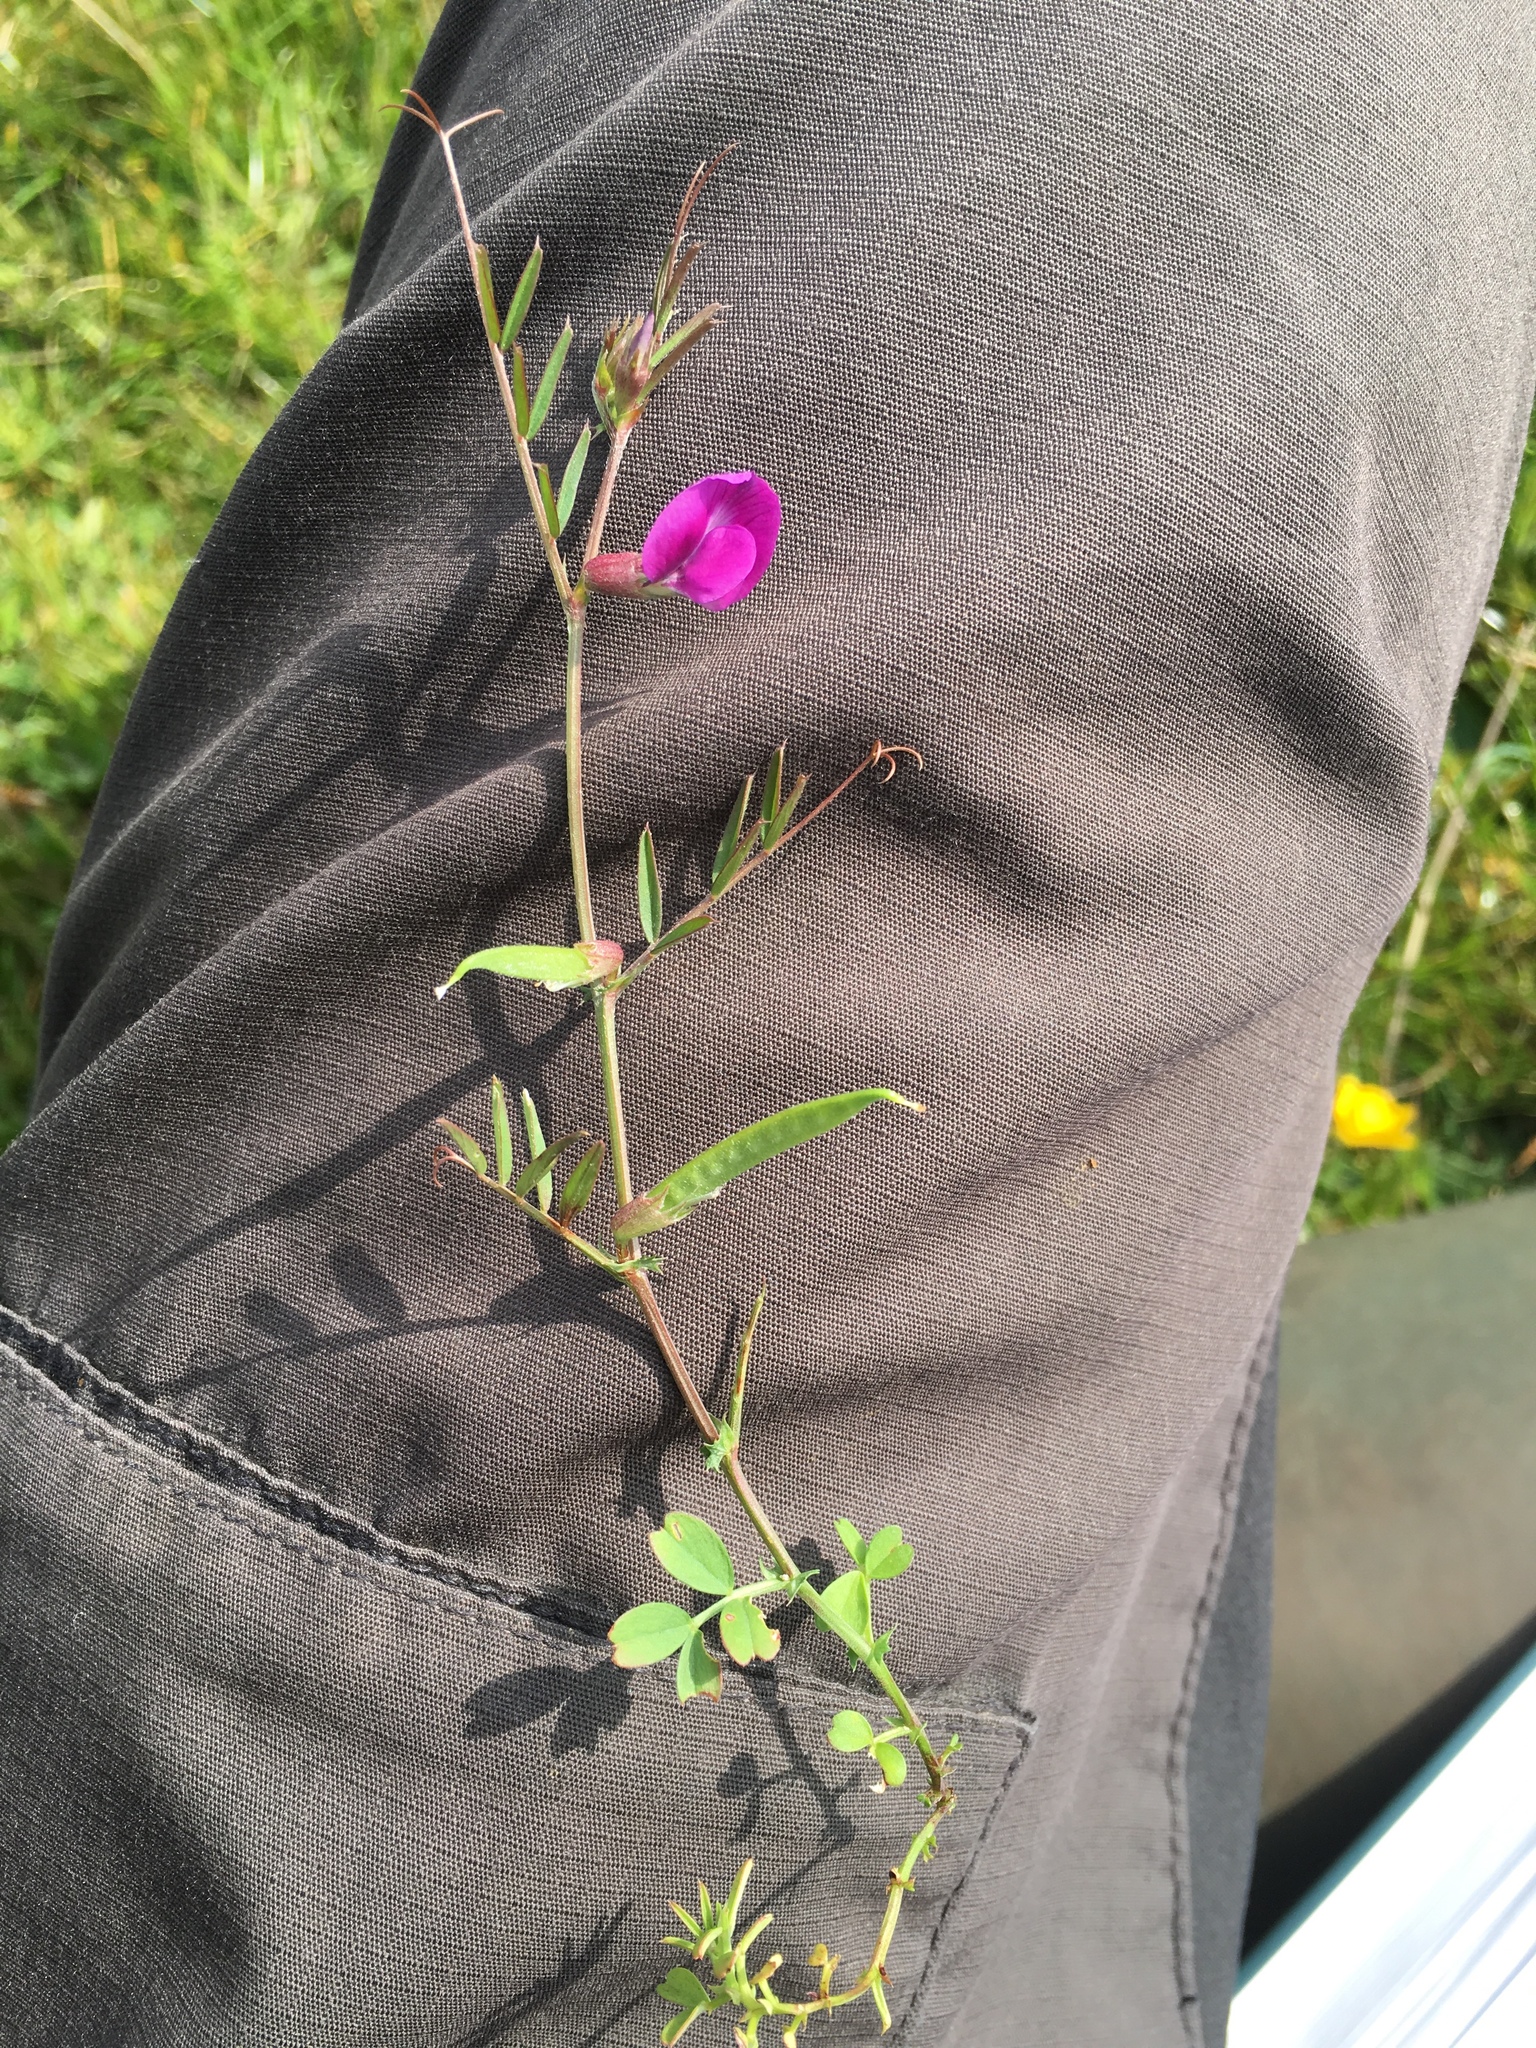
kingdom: Plantae
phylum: Tracheophyta
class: Magnoliopsida
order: Fabales
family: Fabaceae
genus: Vicia
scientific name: Vicia sativa
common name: Garden vetch
